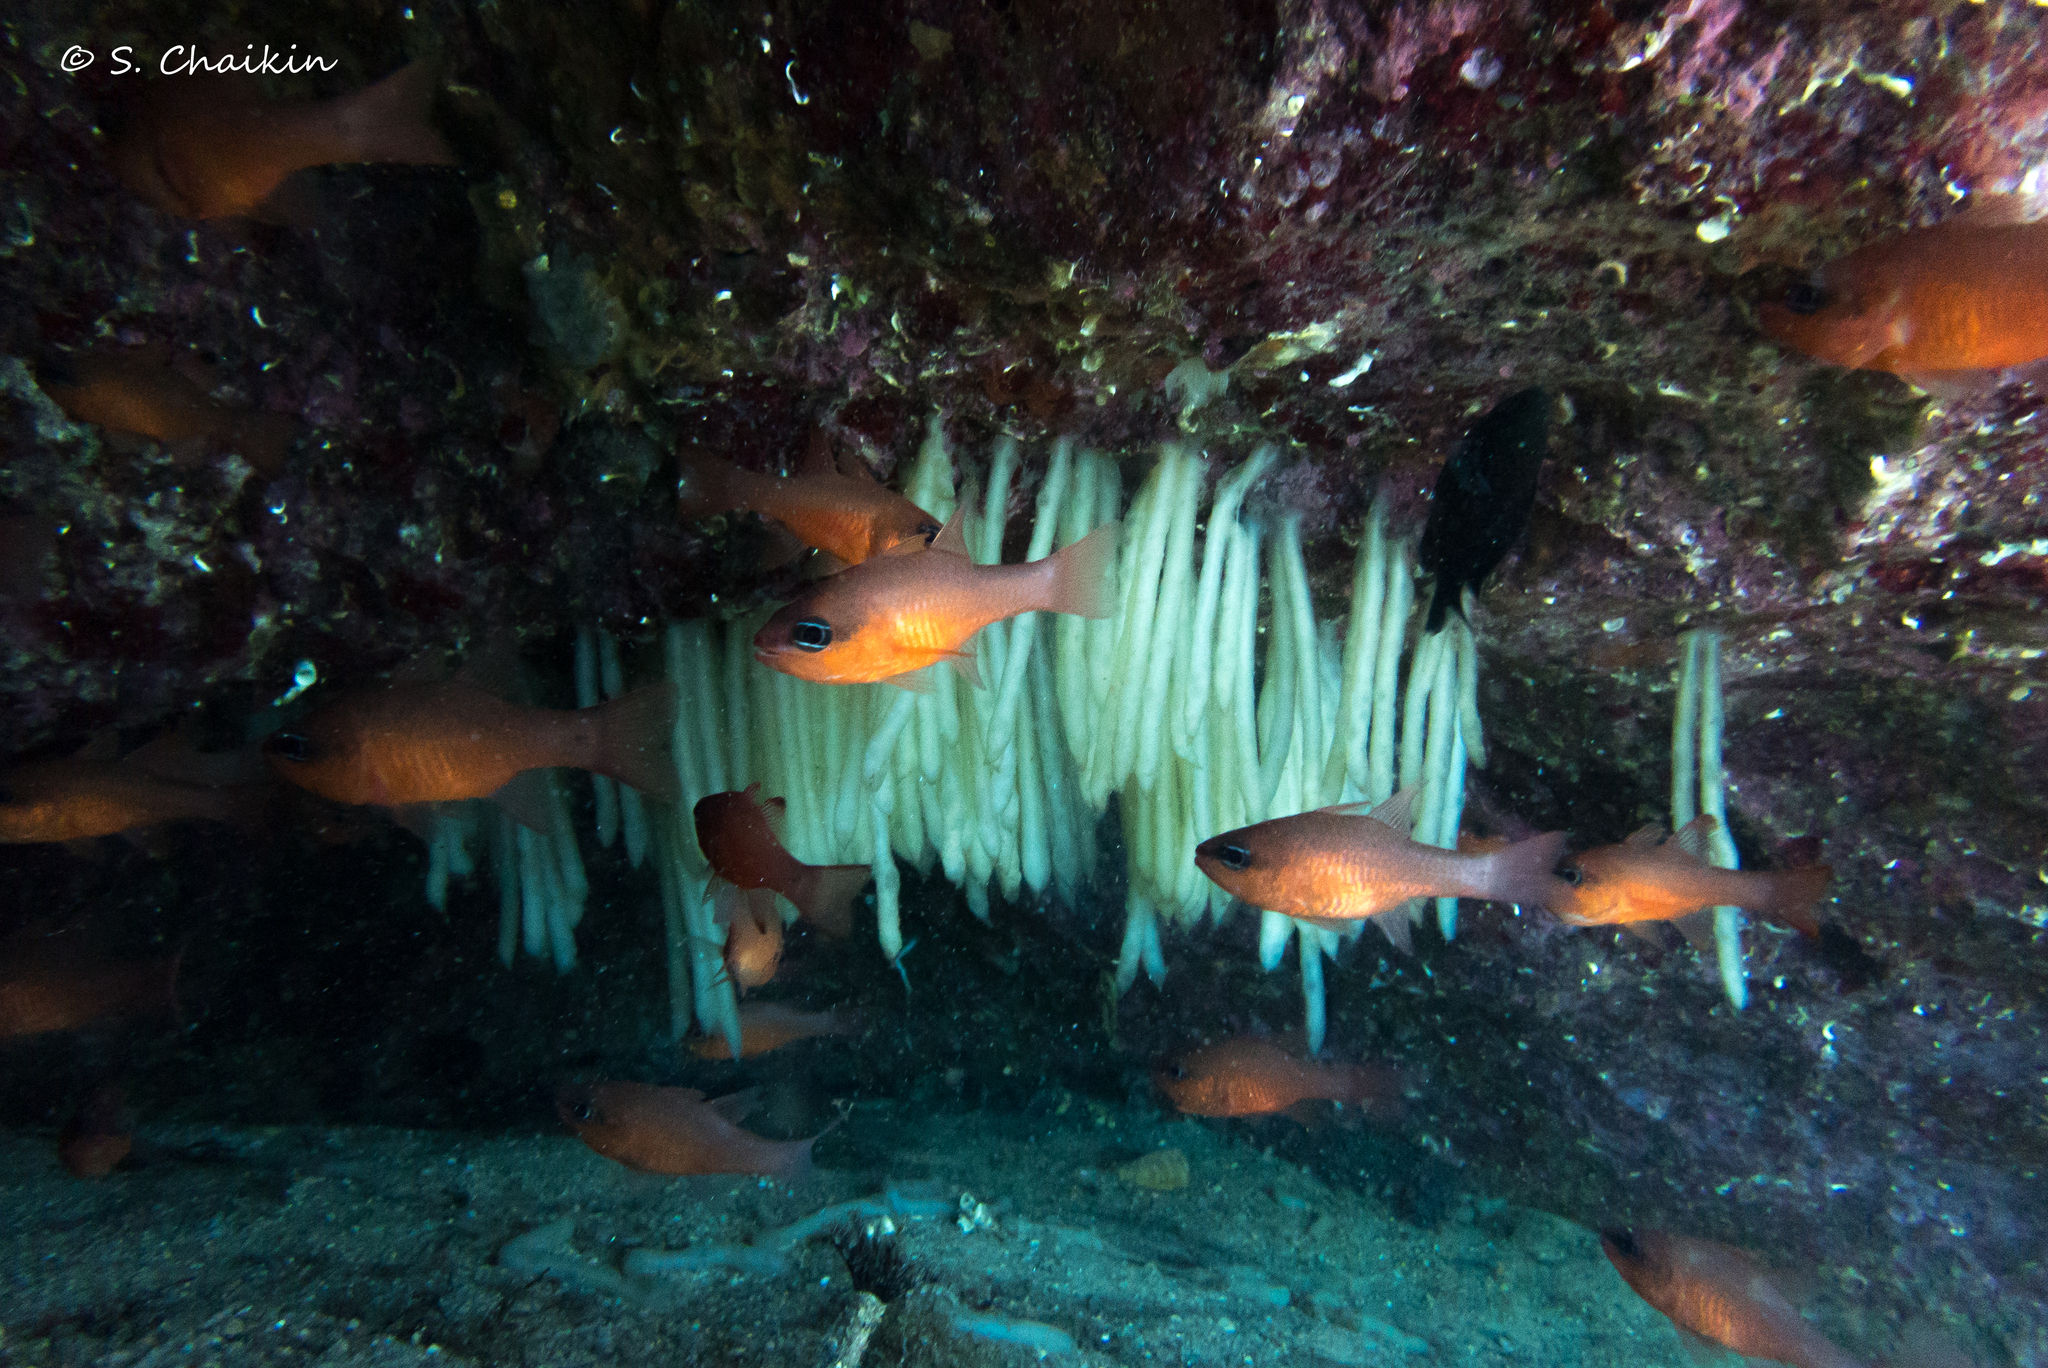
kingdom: Animalia
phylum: Chordata
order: Perciformes
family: Apogonidae
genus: Apogon
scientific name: Apogon imberbis
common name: Cardinal fish
